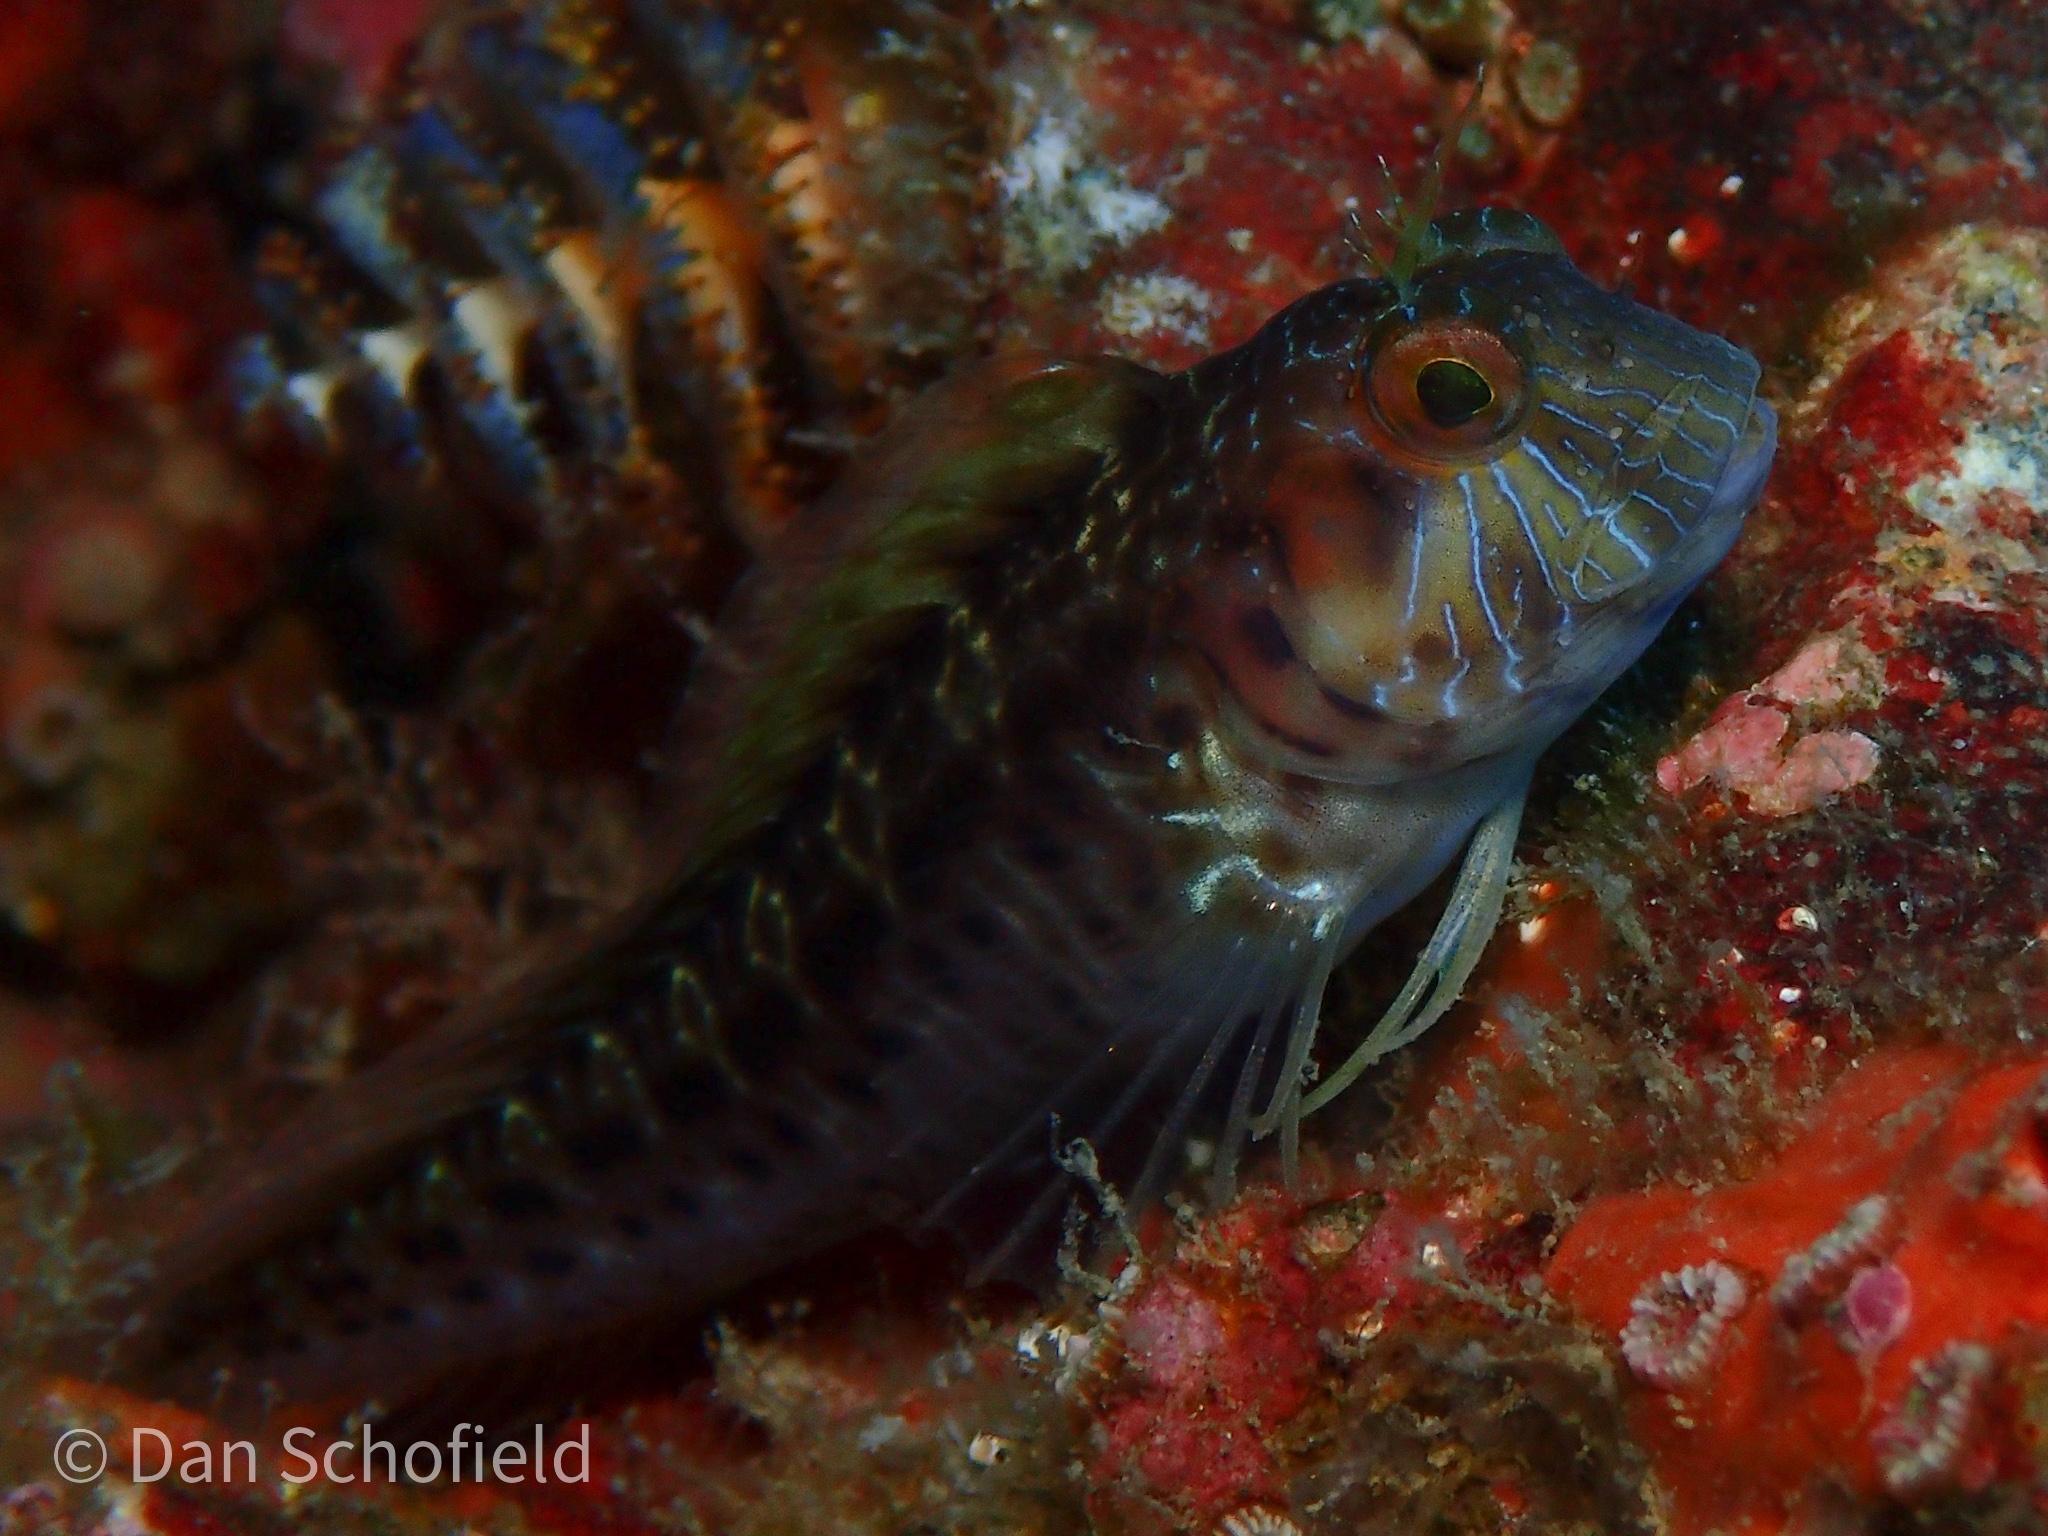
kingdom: Animalia
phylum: Chordata
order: Perciformes
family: Blenniidae
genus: Parablennius
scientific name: Parablennius marmoreus
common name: Seaweed blenny
